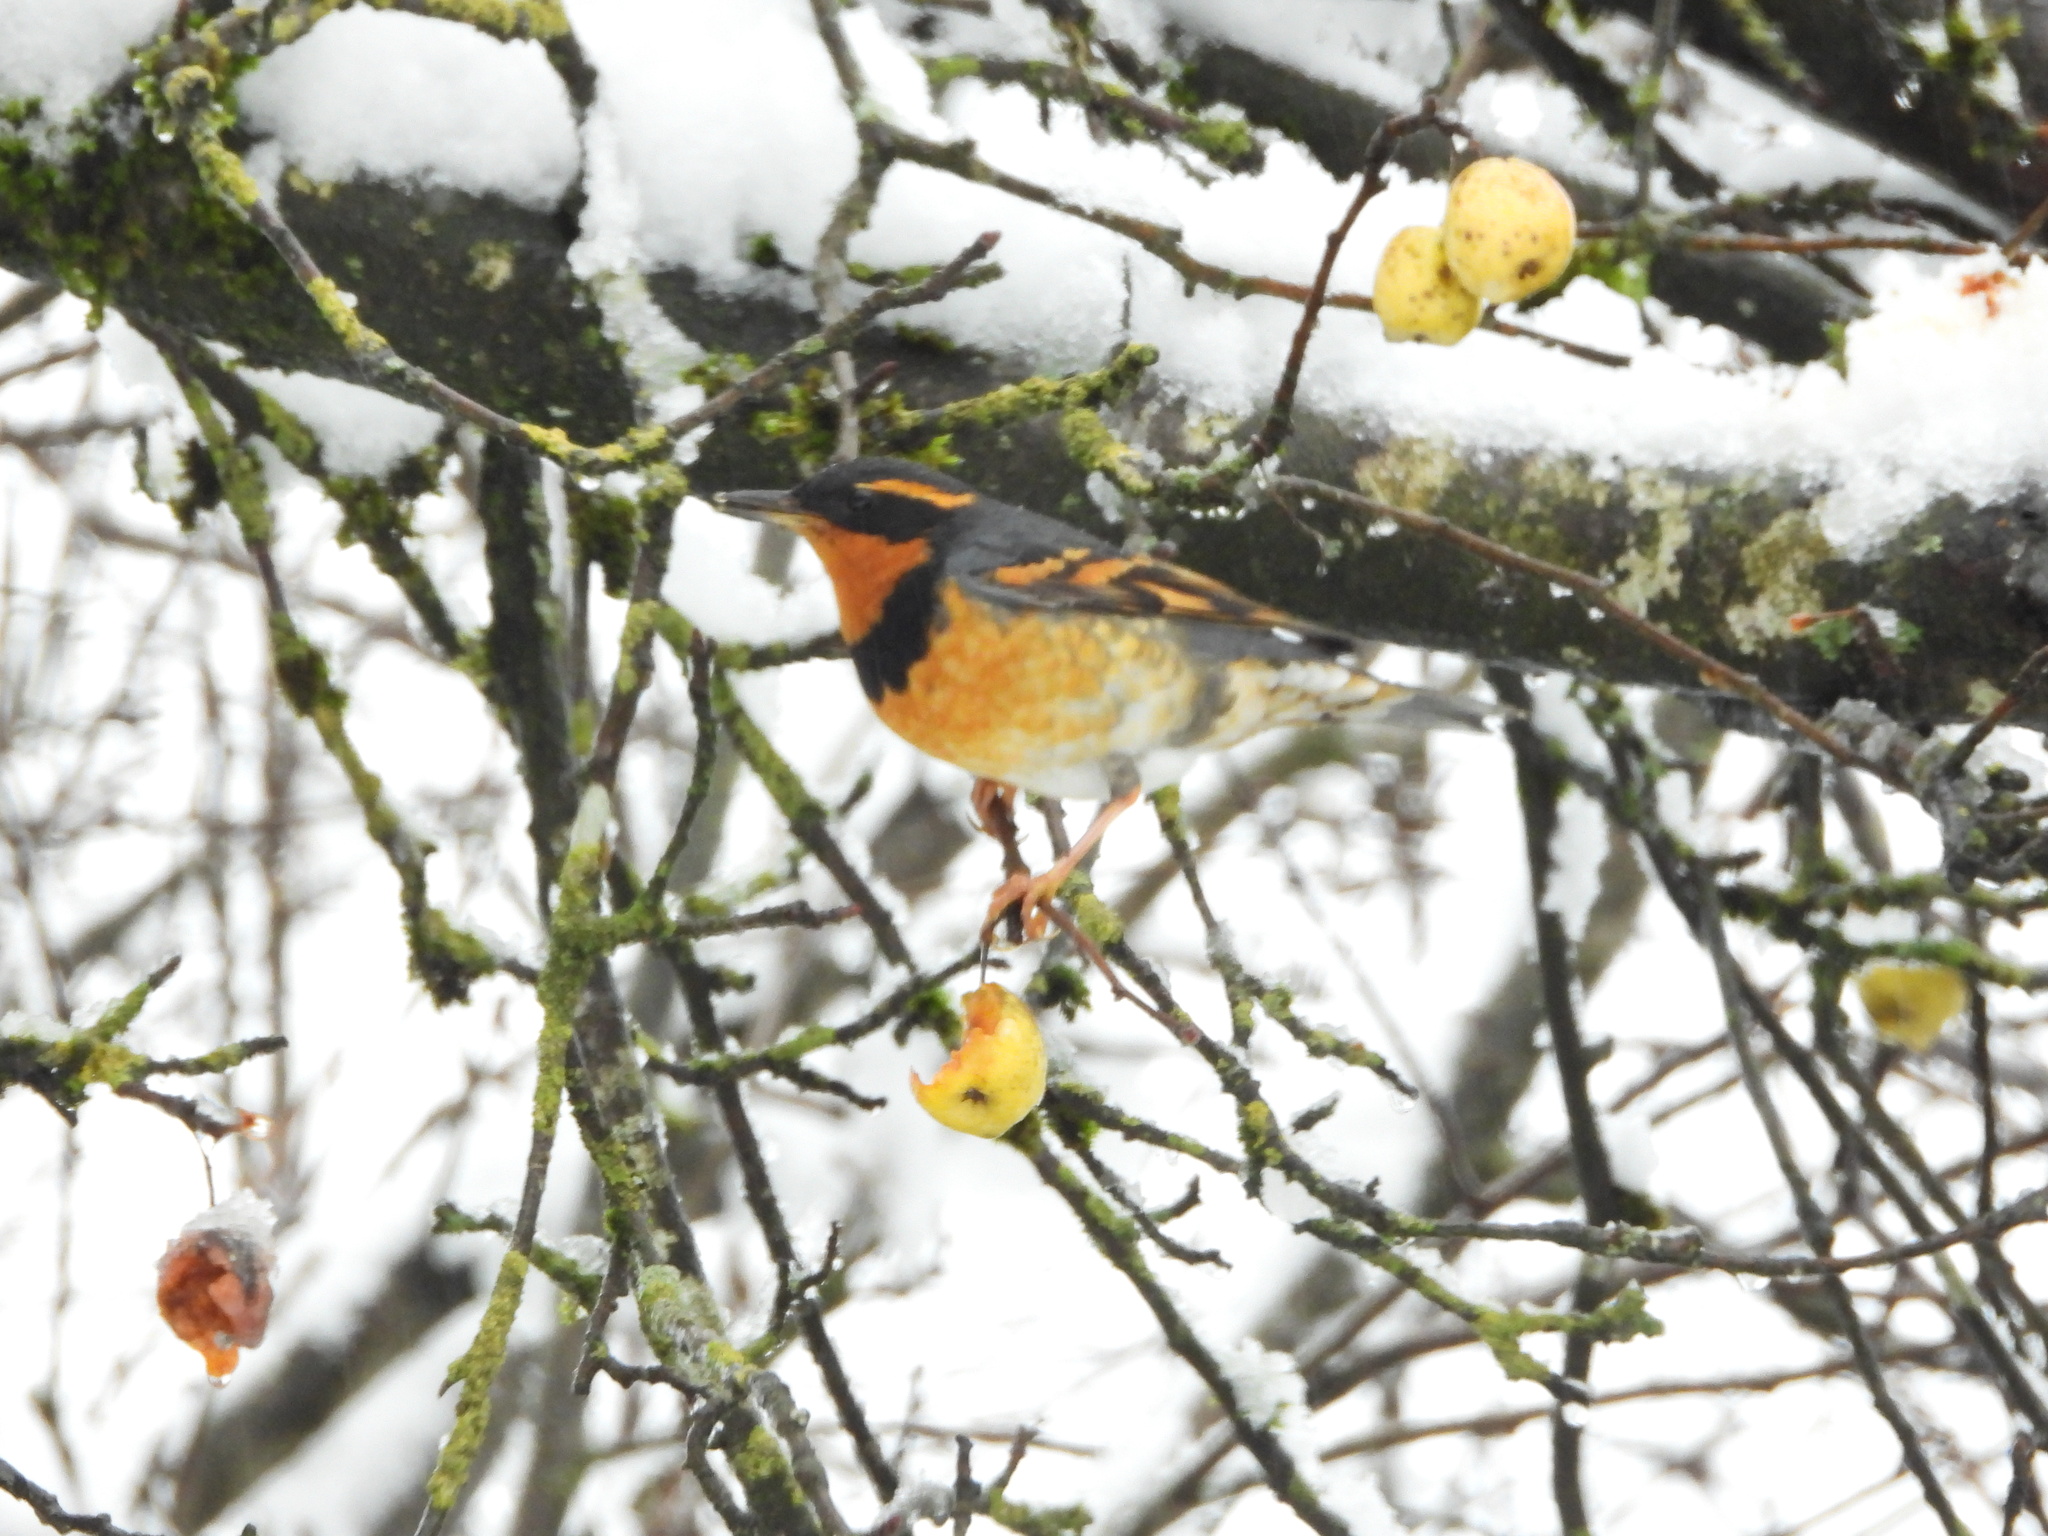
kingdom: Animalia
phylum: Chordata
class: Aves
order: Passeriformes
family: Turdidae
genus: Ixoreus
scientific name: Ixoreus naevius
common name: Varied thrush
